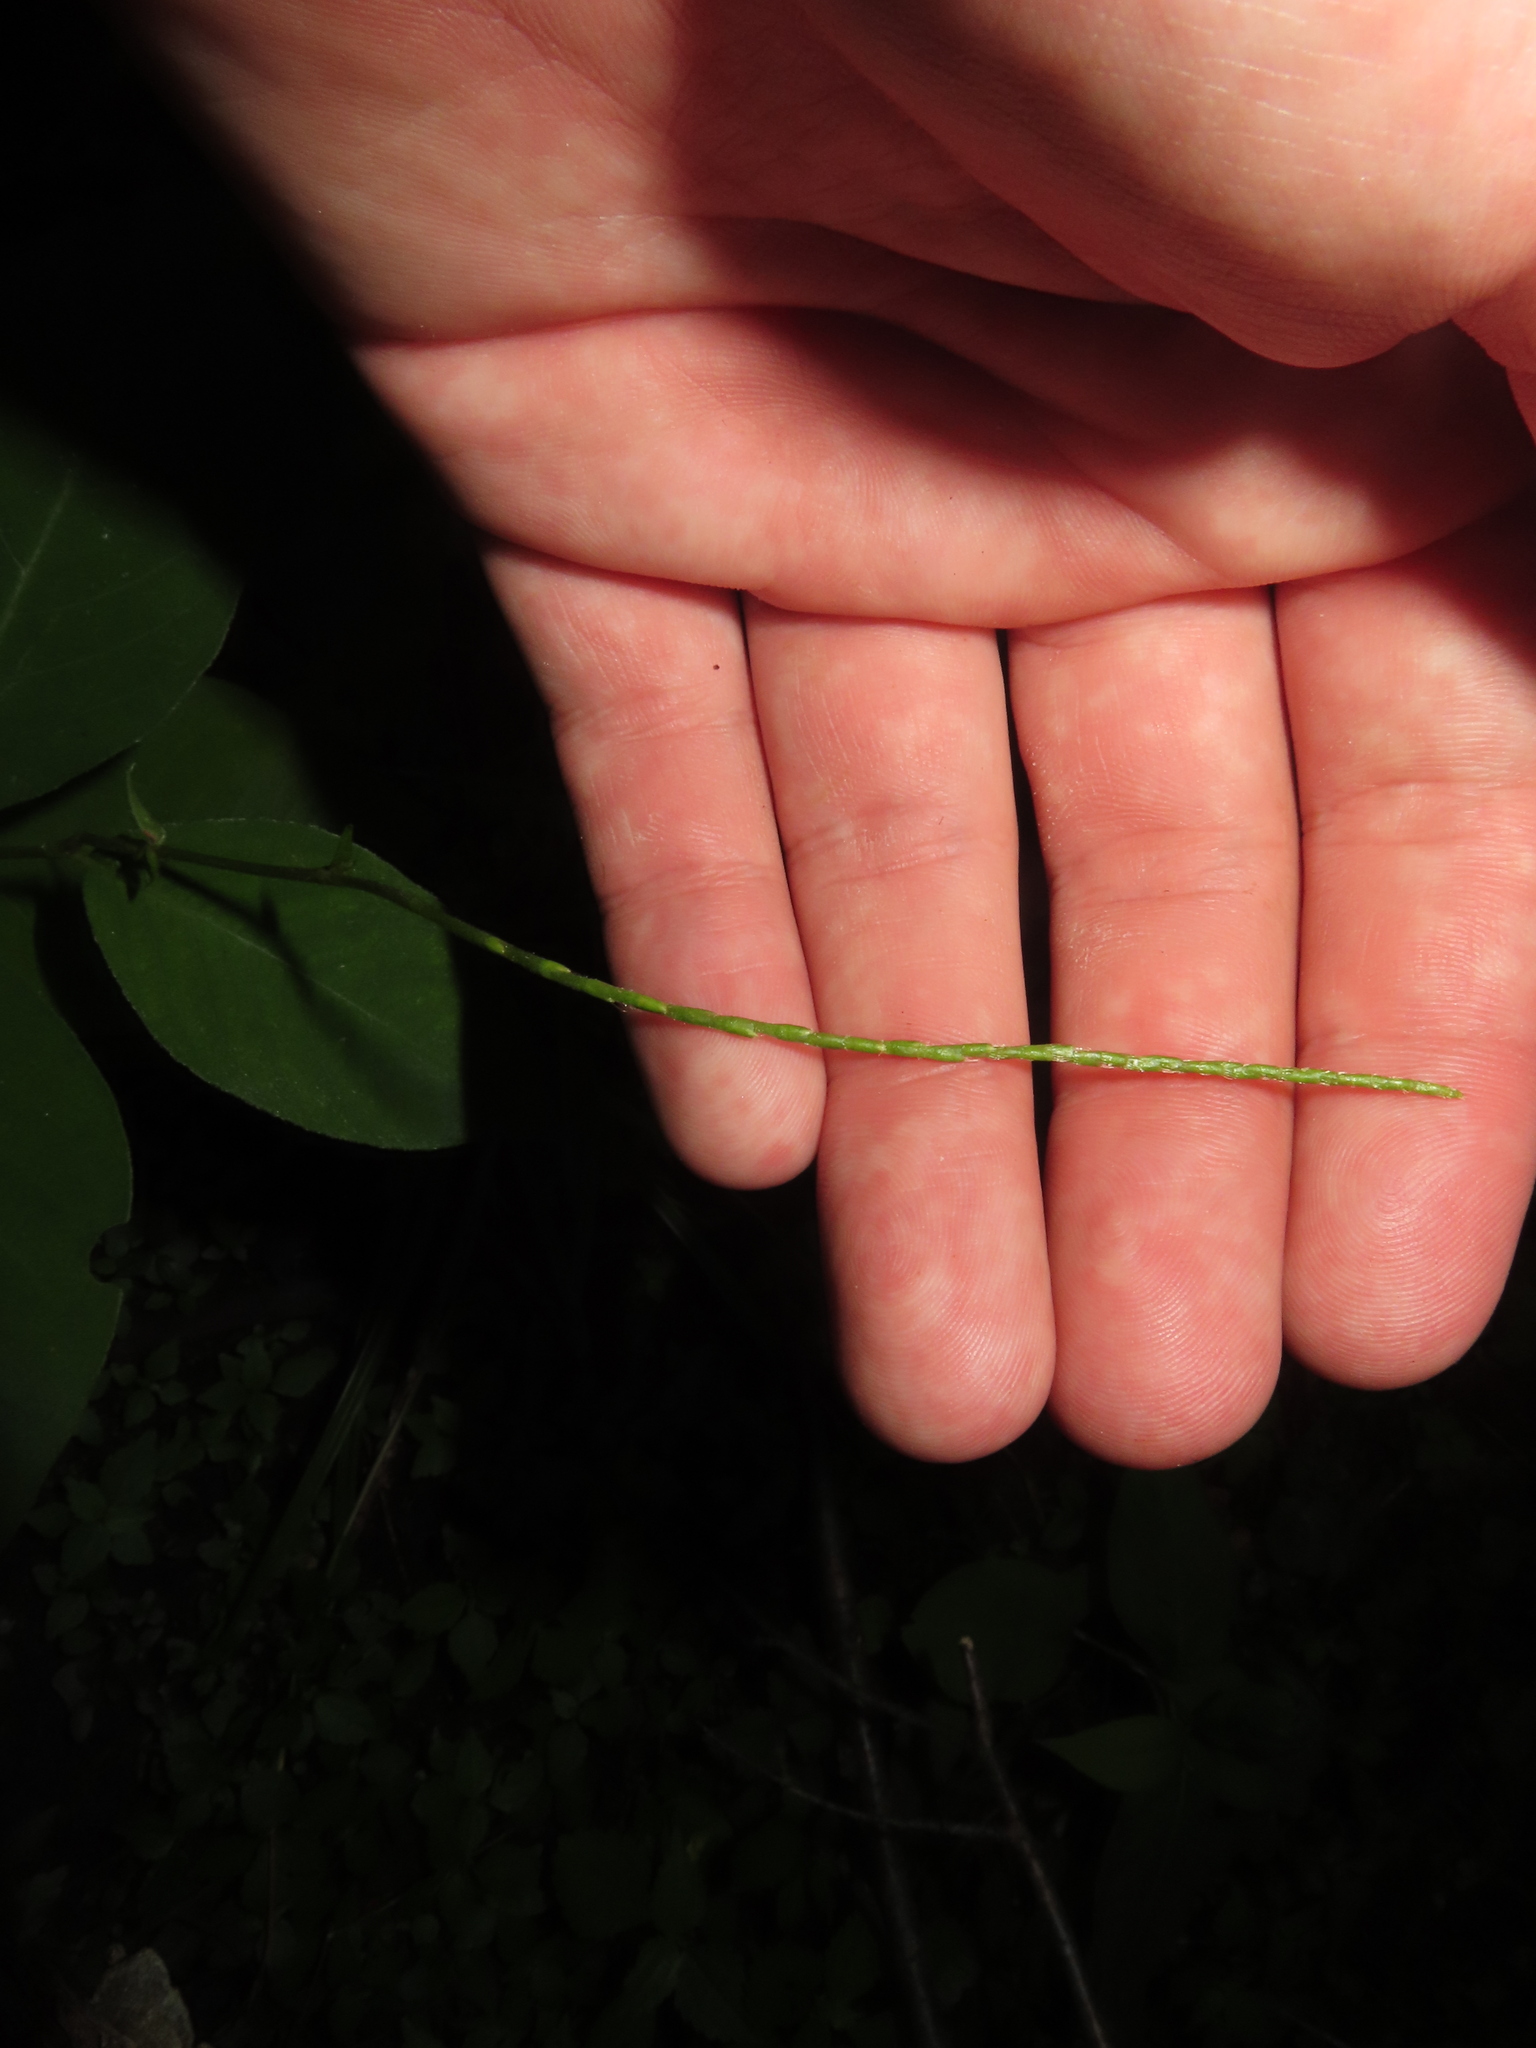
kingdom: Plantae
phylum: Tracheophyta
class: Magnoliopsida
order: Caryophyllales
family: Polygonaceae
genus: Persicaria
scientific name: Persicaria virginiana
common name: Jumpseed
